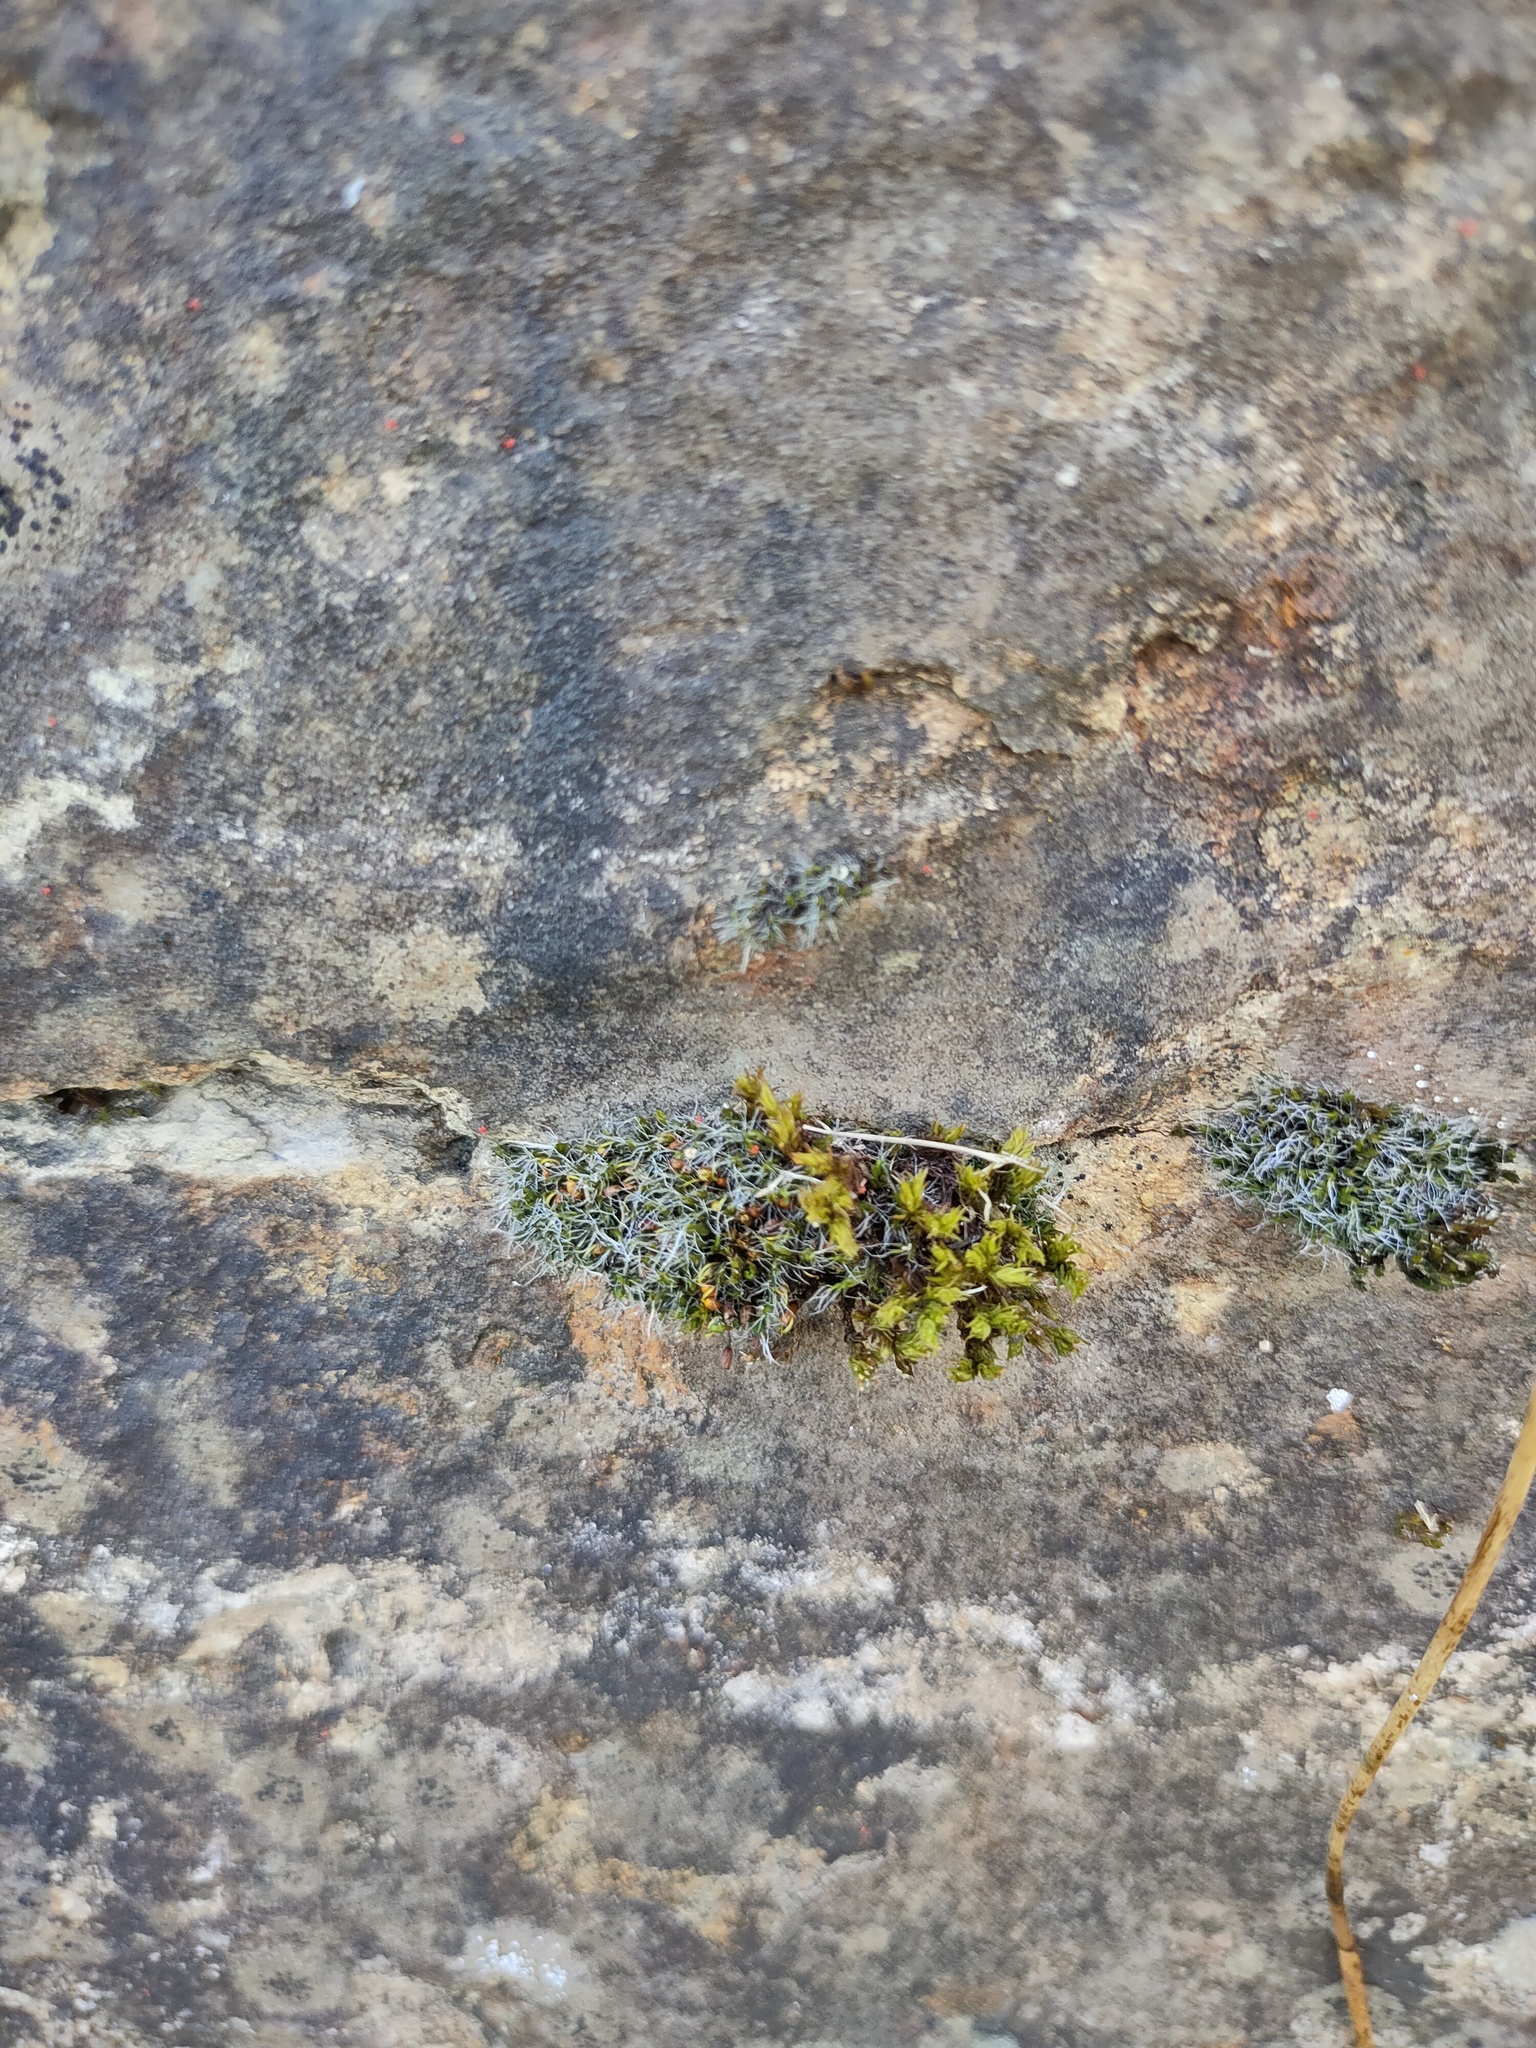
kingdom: Plantae
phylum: Bryophyta
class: Bryopsida
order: Grimmiales
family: Grimmiaceae
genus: Grimmia
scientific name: Grimmia pulvinata
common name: Grey-cushioned grimmia
